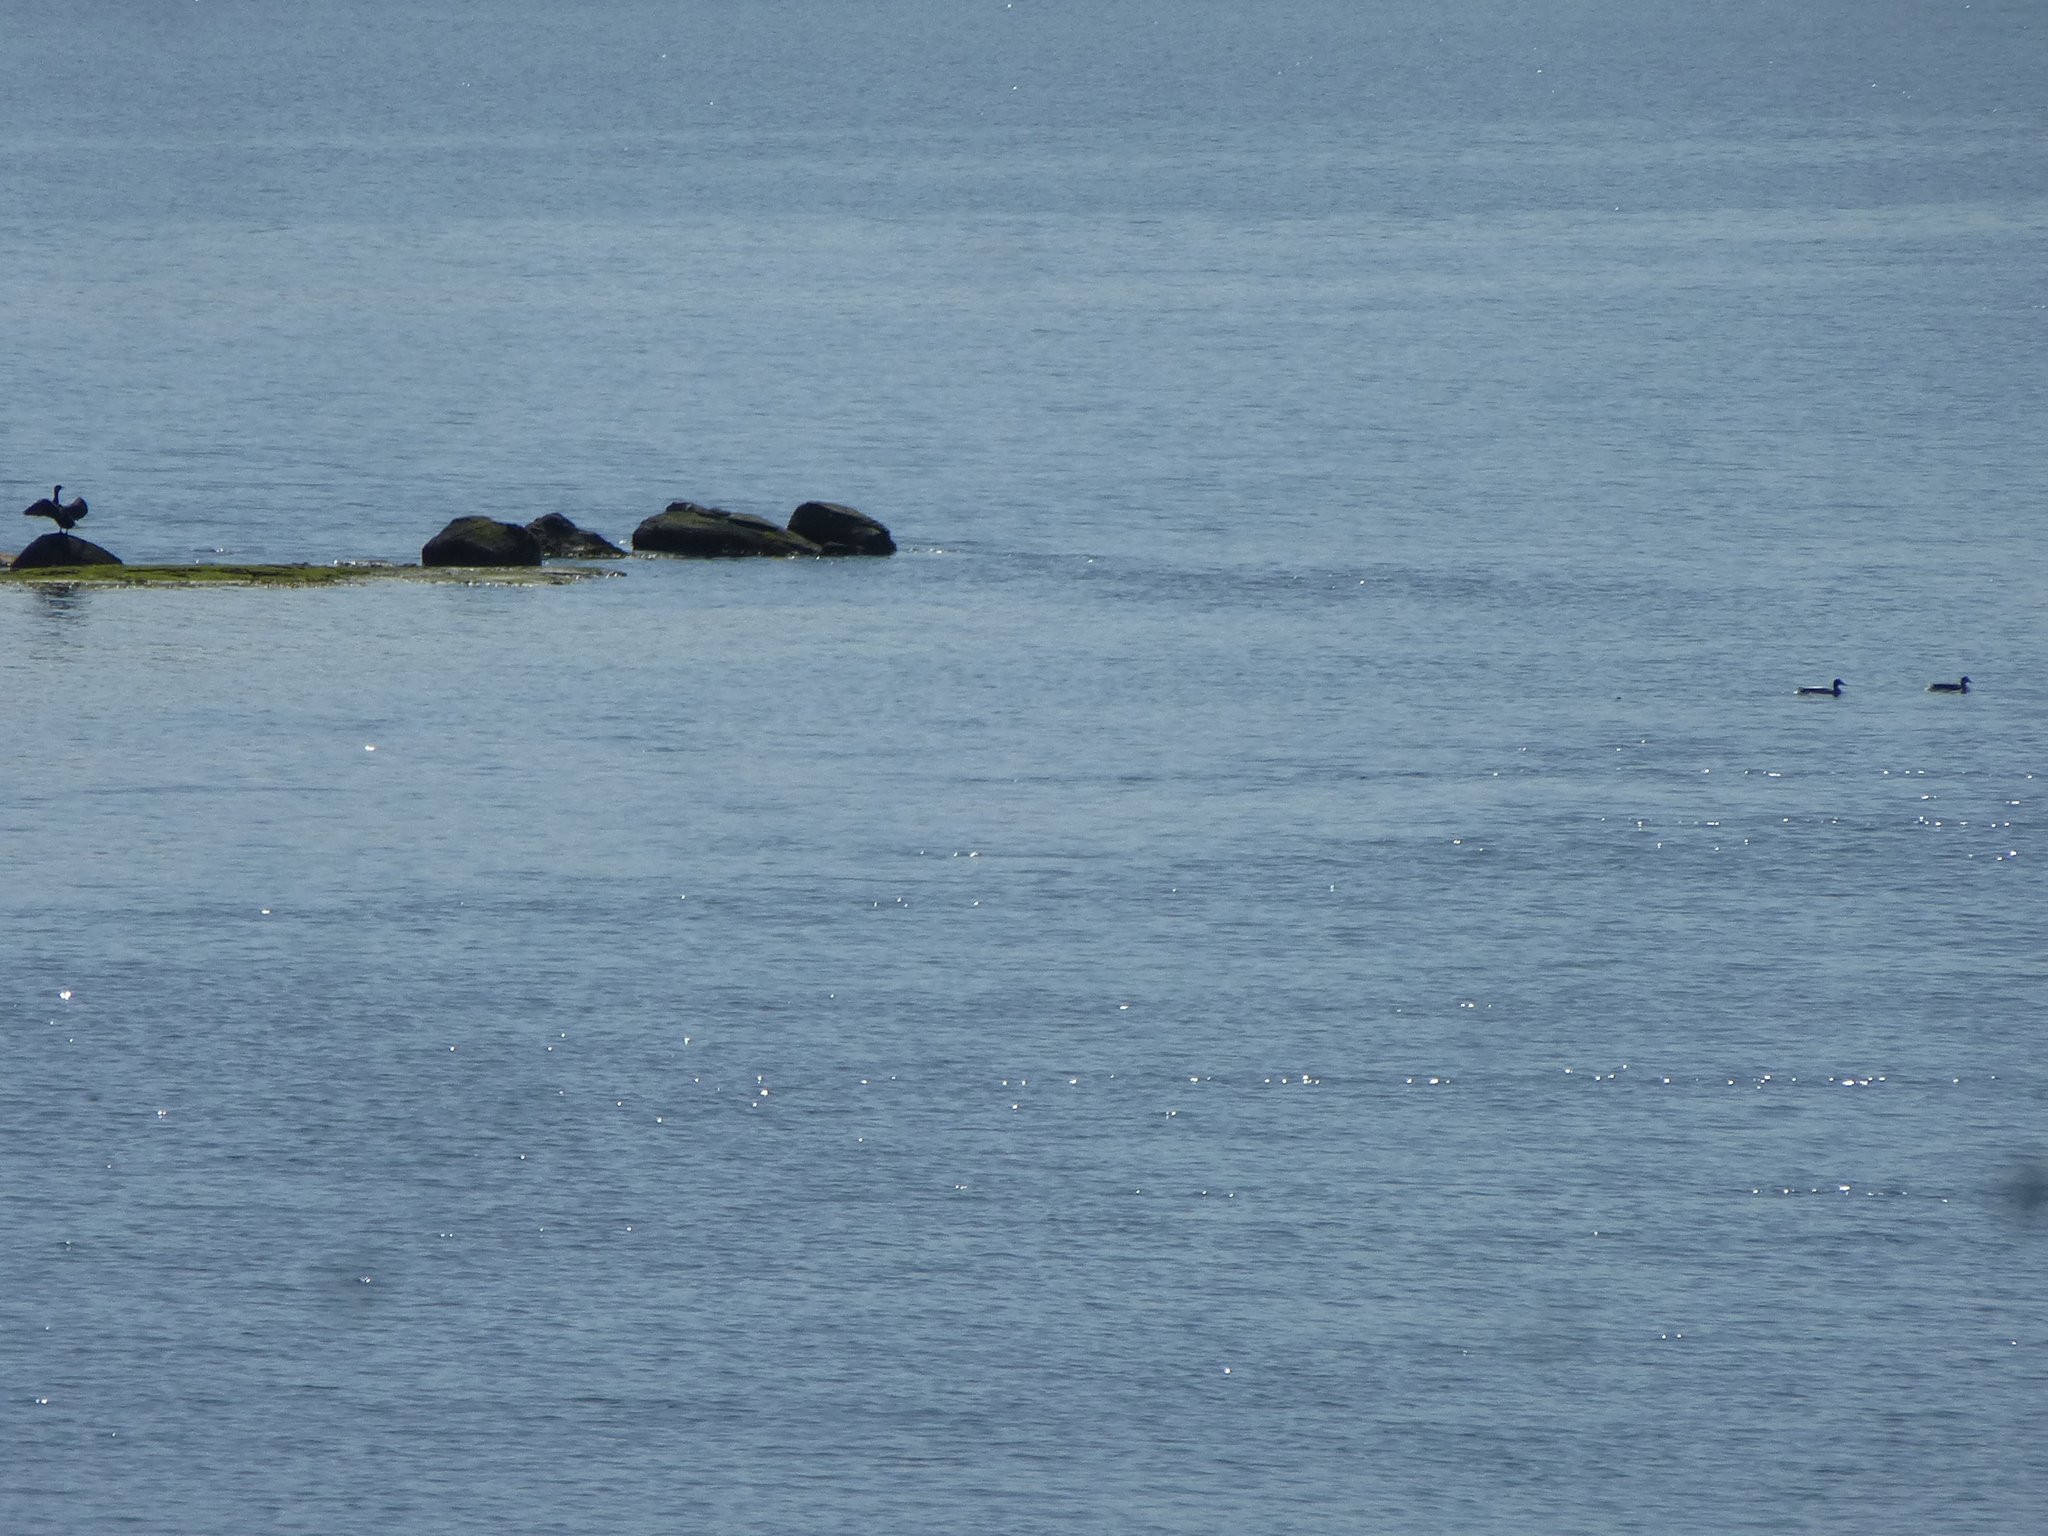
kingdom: Animalia
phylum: Chordata
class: Aves
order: Suliformes
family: Phalacrocoracidae
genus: Phalacrocorax
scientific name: Phalacrocorax auritus
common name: Double-crested cormorant
